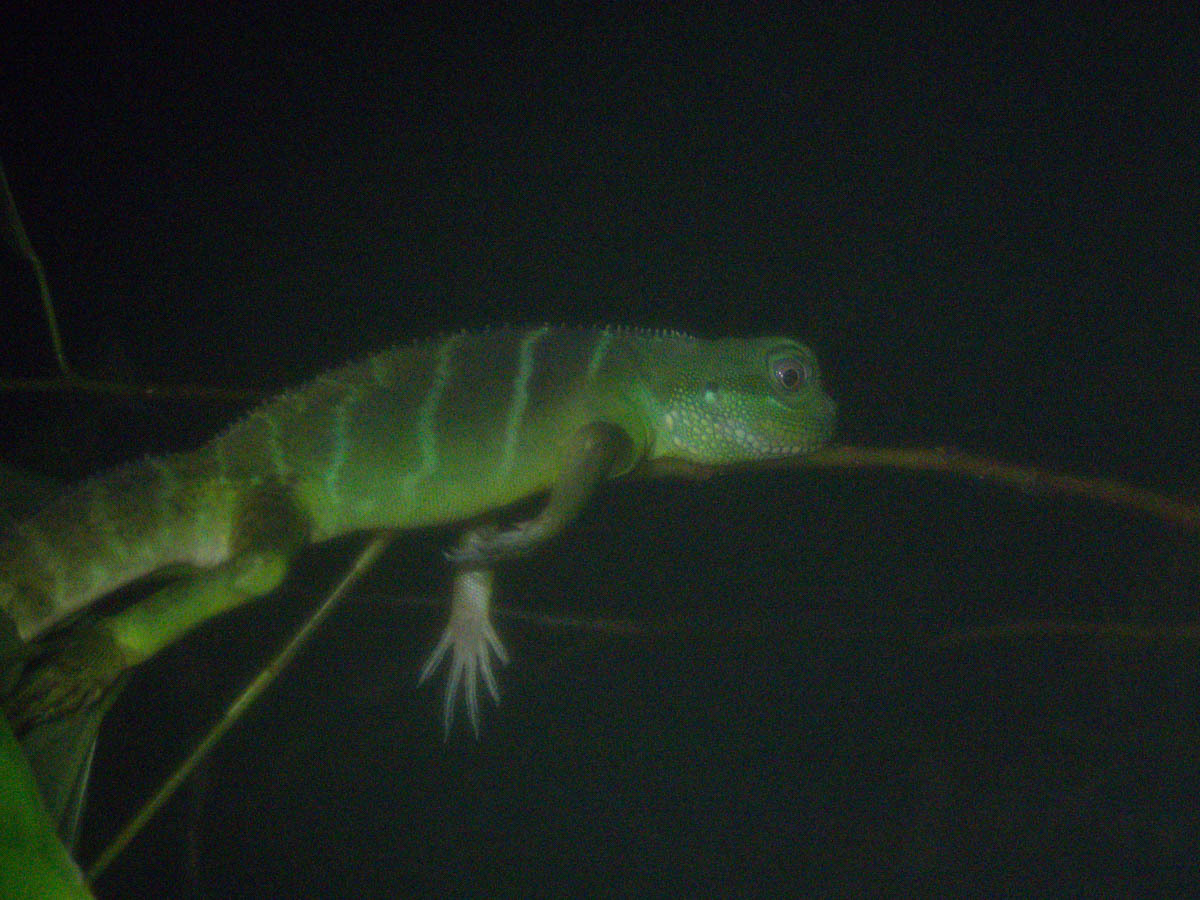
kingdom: Animalia
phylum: Chordata
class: Squamata
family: Agamidae
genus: Physignathus
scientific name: Physignathus cocincinus
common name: Asian water dragon
